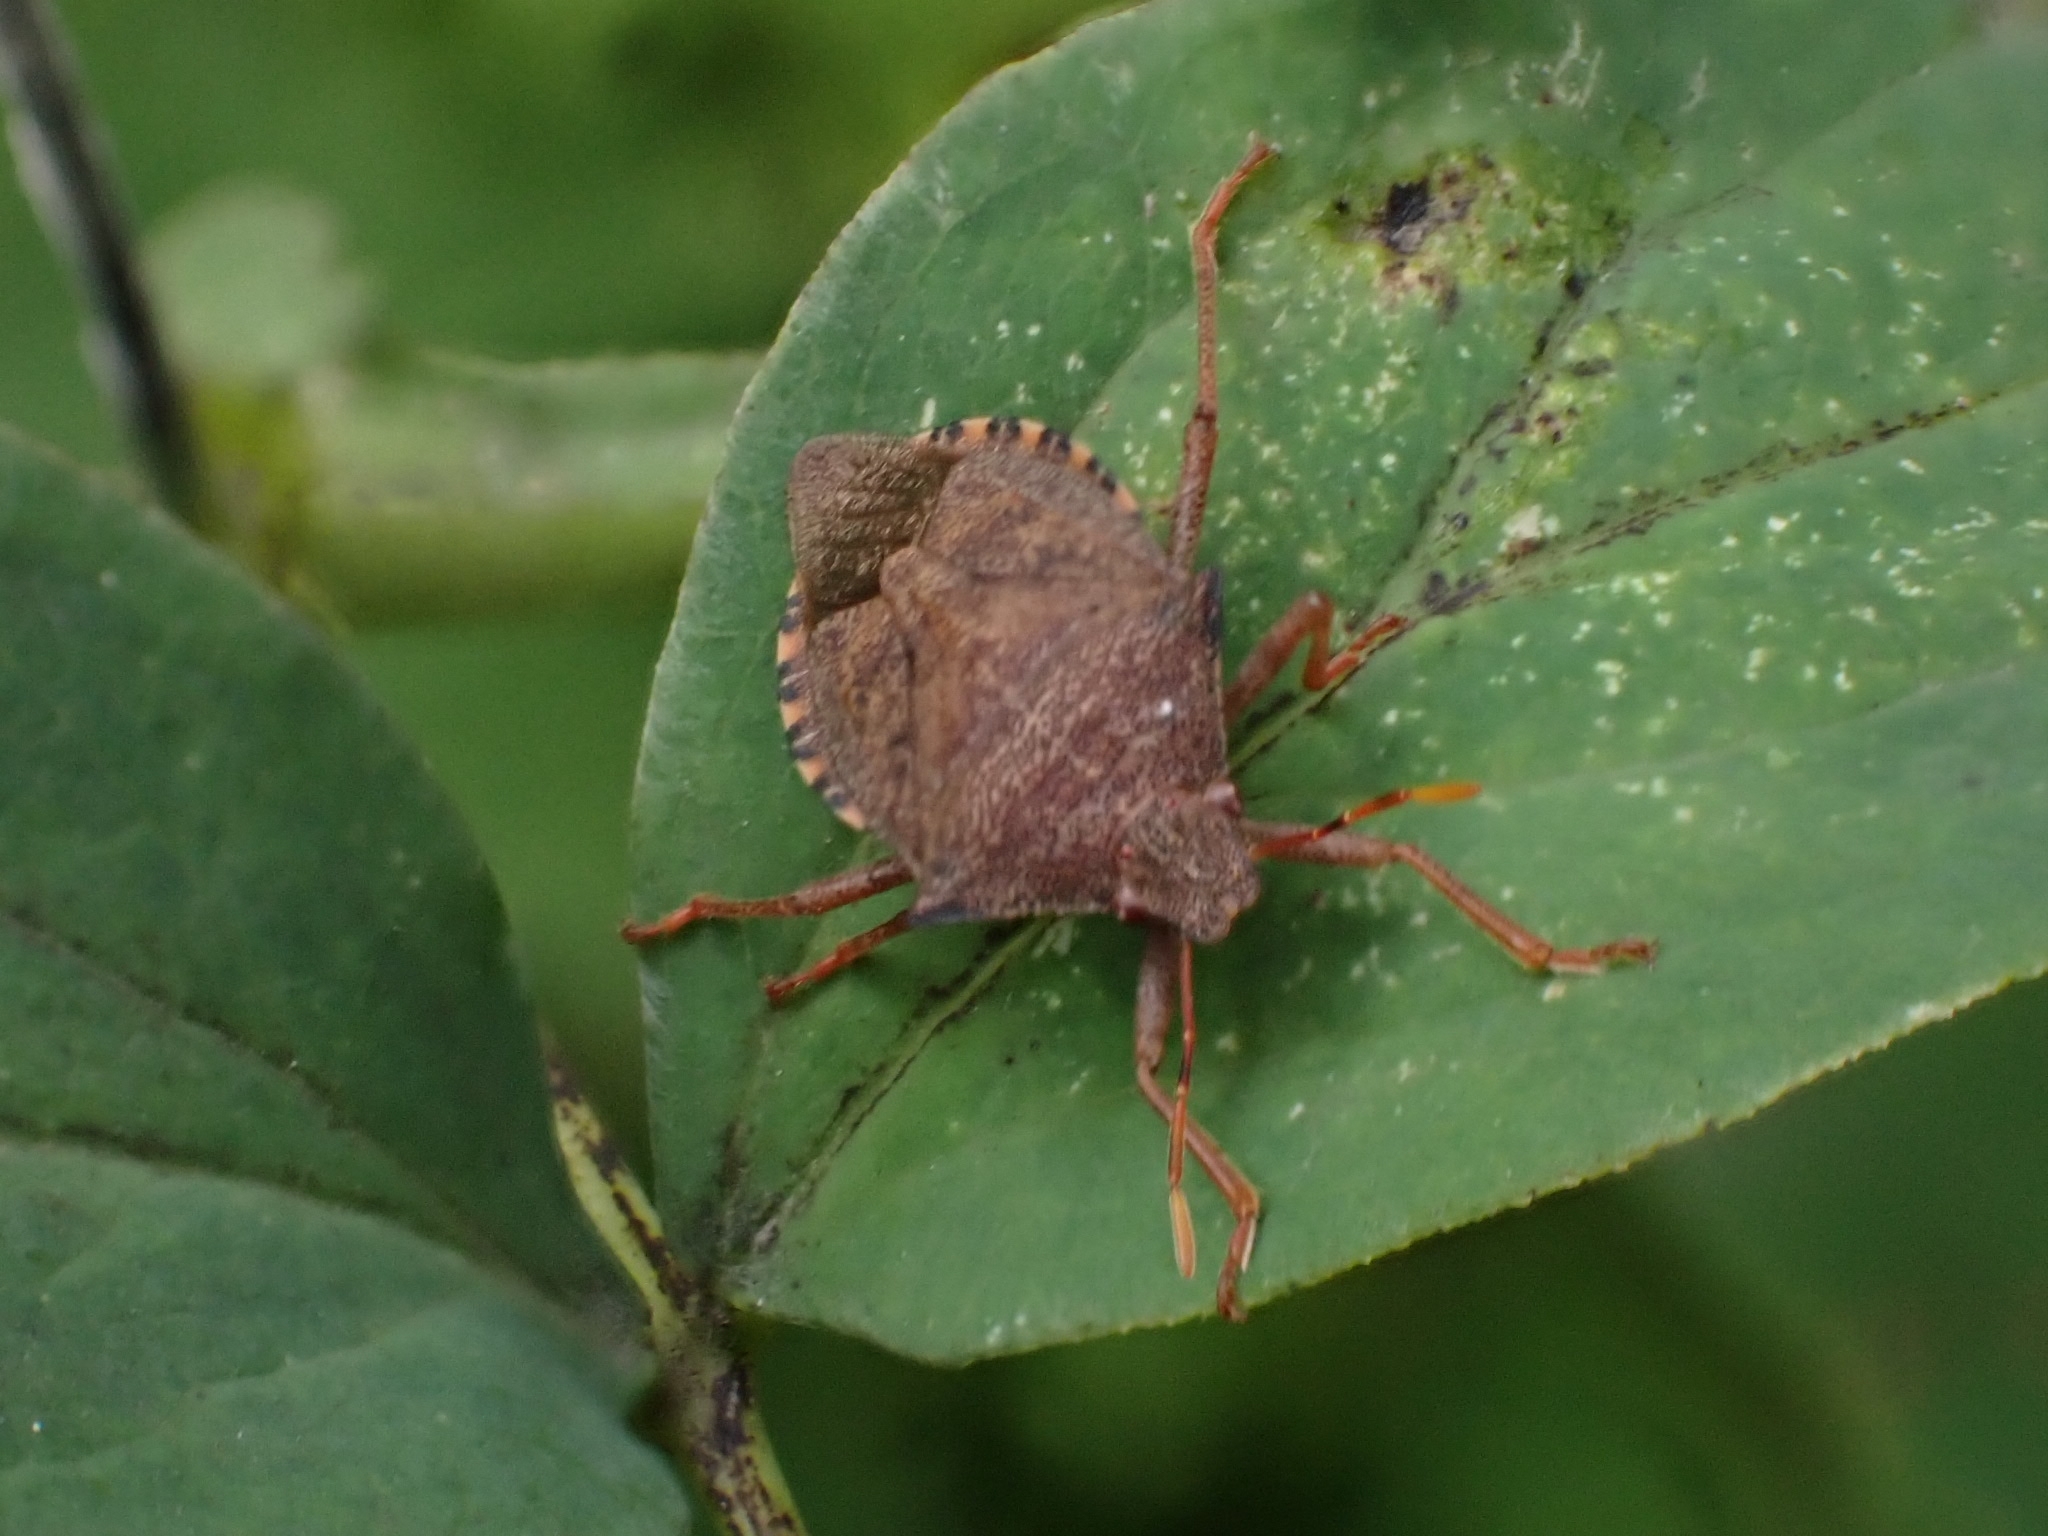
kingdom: Animalia
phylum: Arthropoda
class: Insecta
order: Hemiptera
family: Pentatomidae
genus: Arma
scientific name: Arma custos
